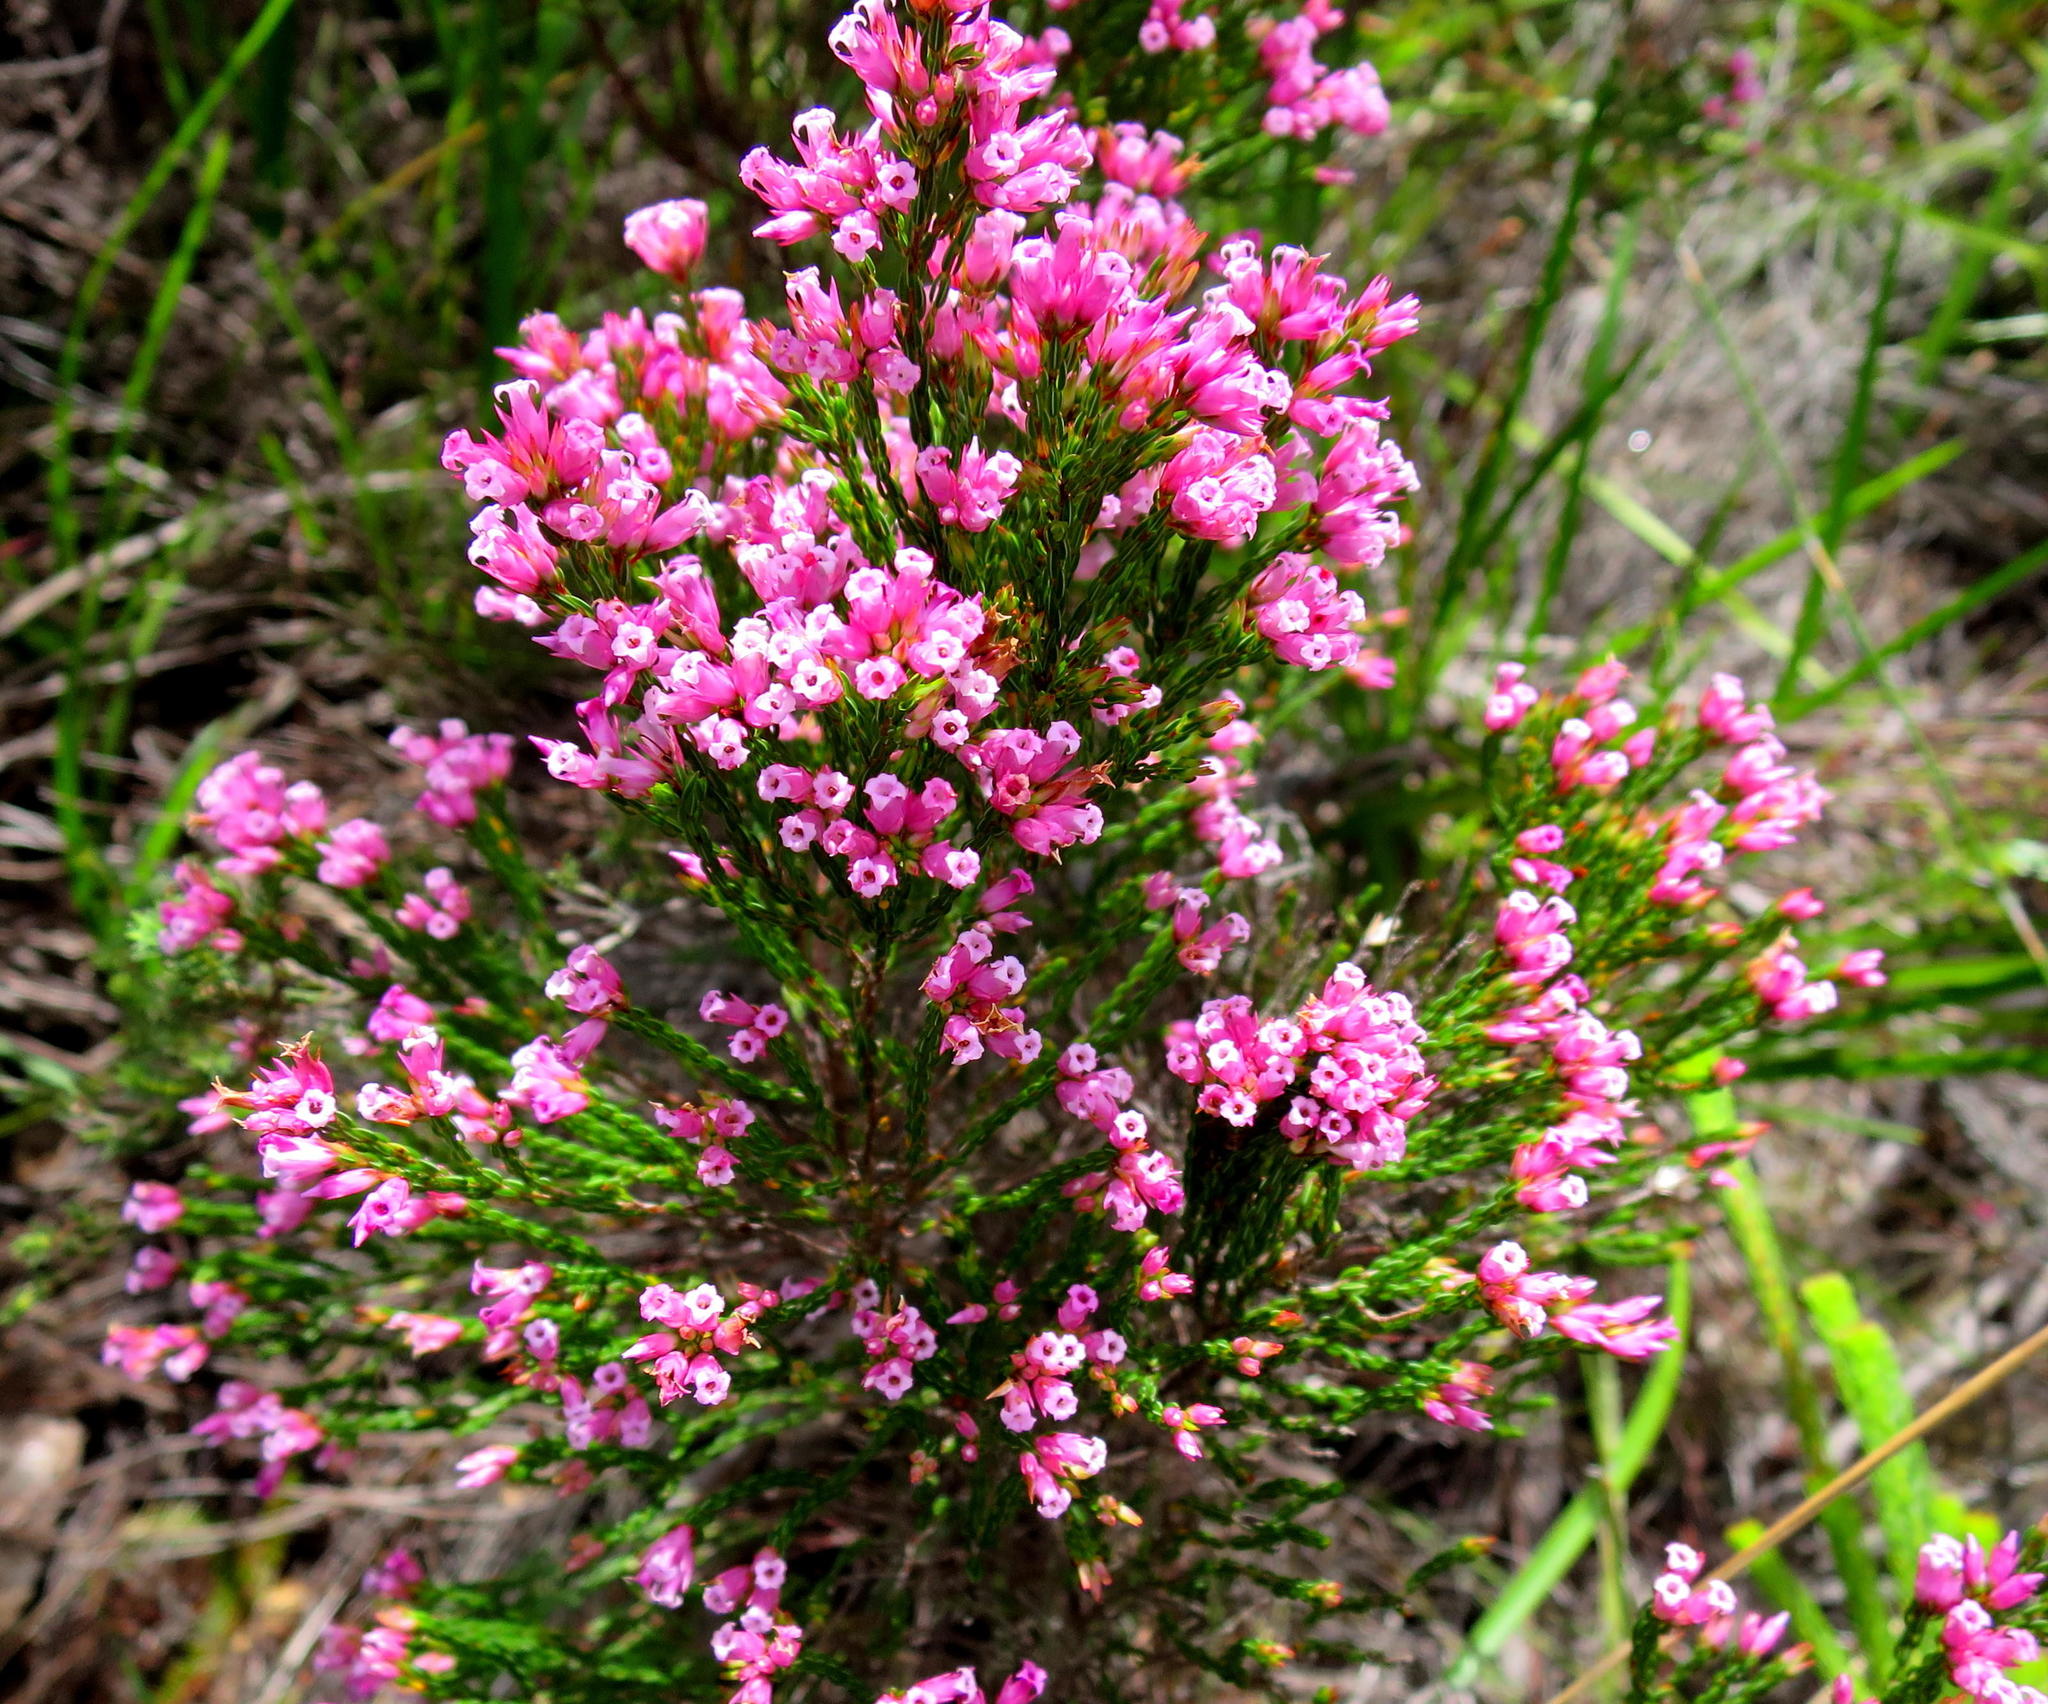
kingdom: Plantae
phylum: Tracheophyta
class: Magnoliopsida
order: Ericales
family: Ericaceae
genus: Erica
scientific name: Erica steinbergiana
